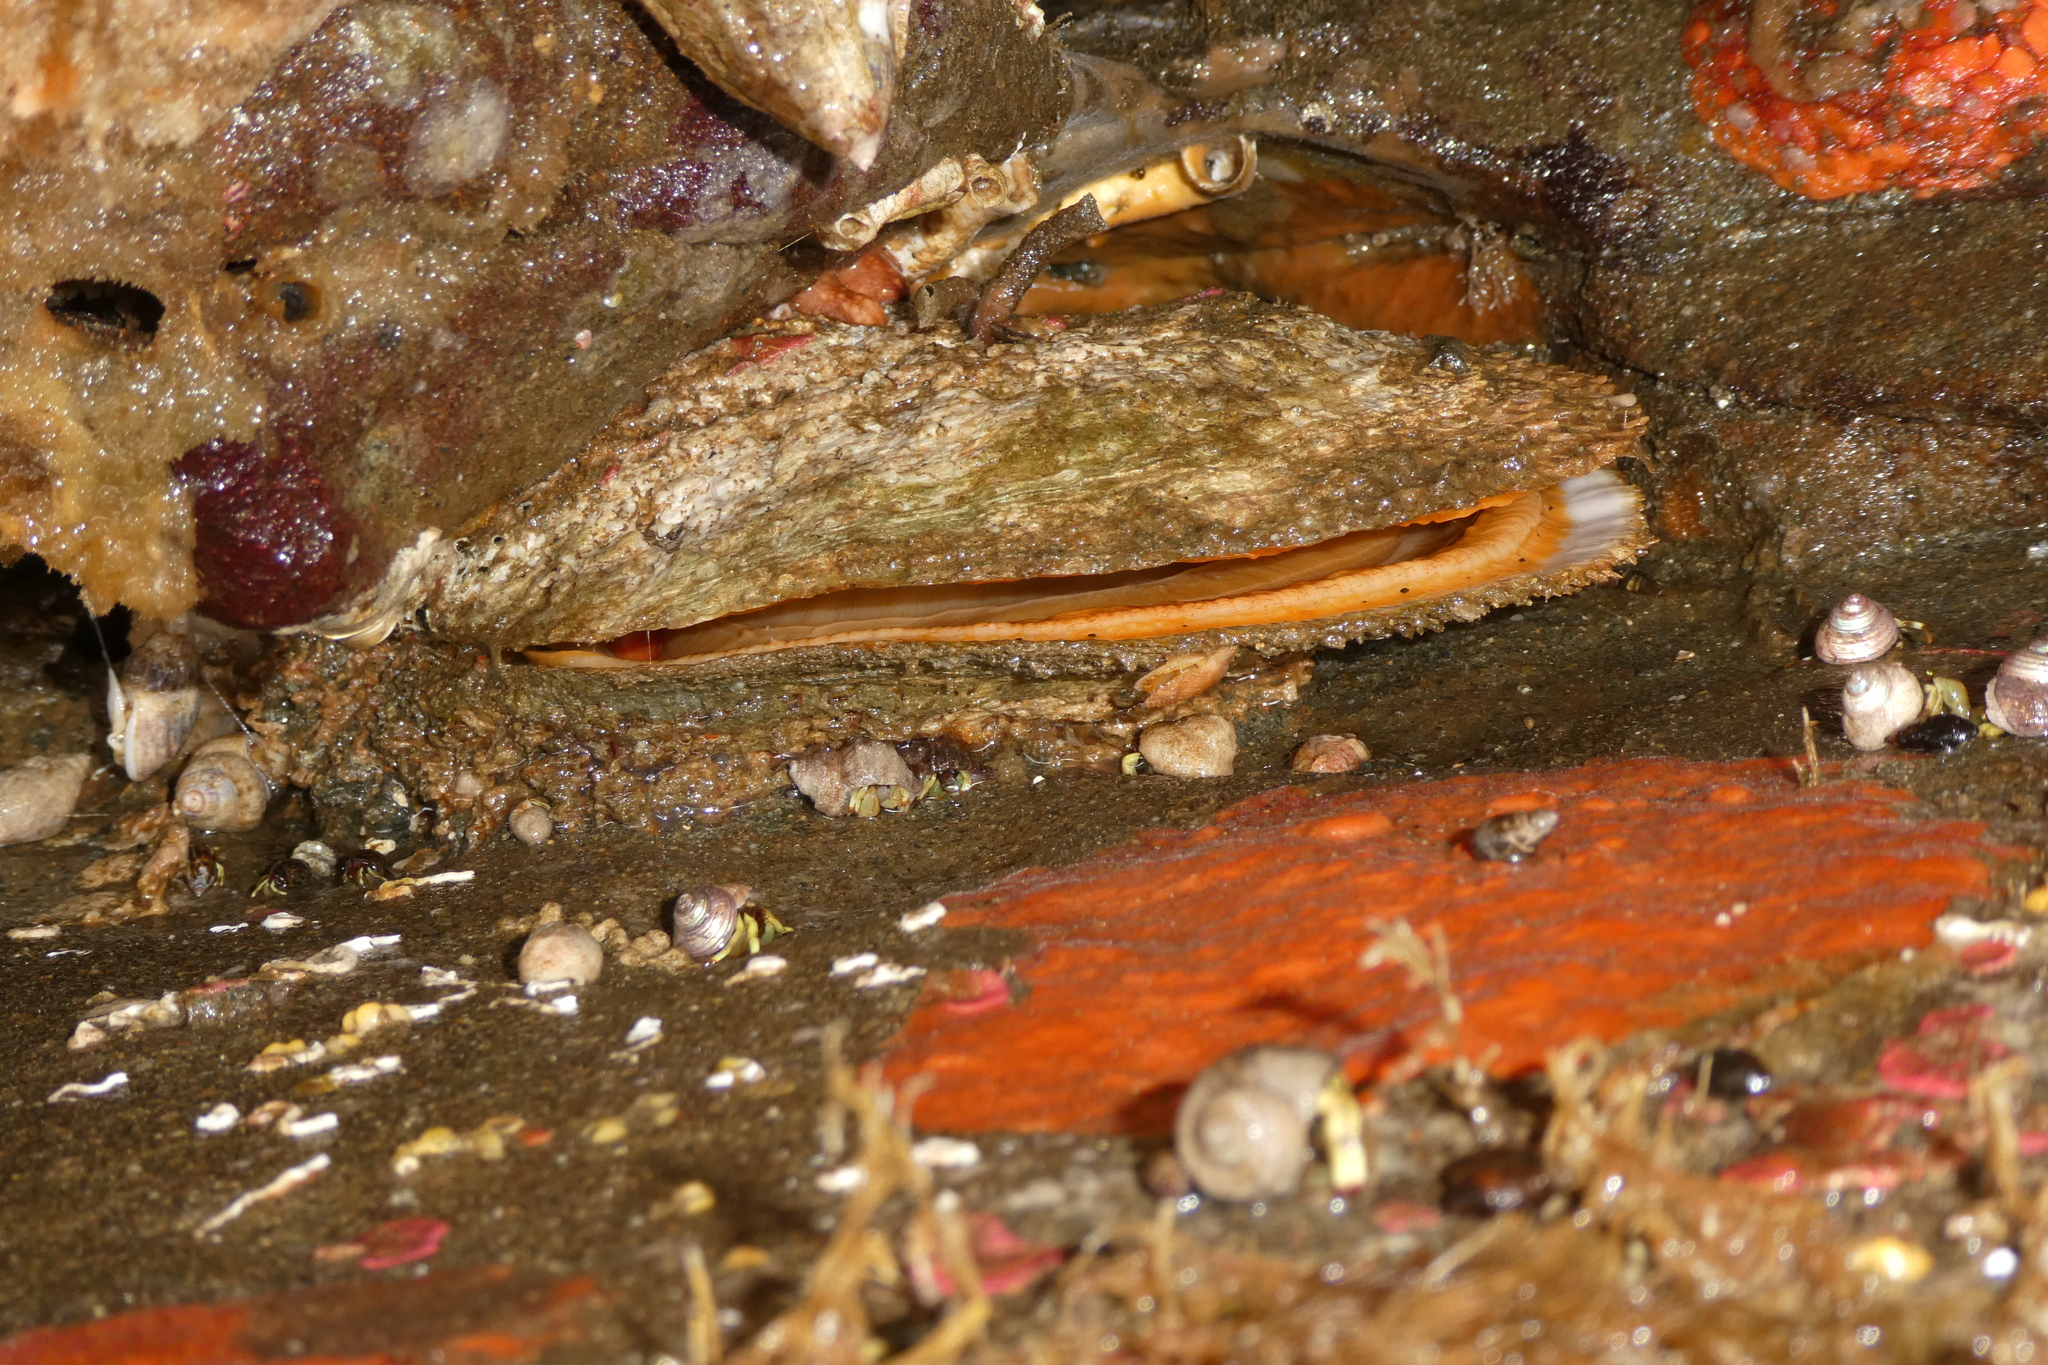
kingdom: Animalia
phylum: Mollusca
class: Bivalvia
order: Pectinida
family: Pectinidae
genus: Crassadoma
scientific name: Crassadoma gigantea
